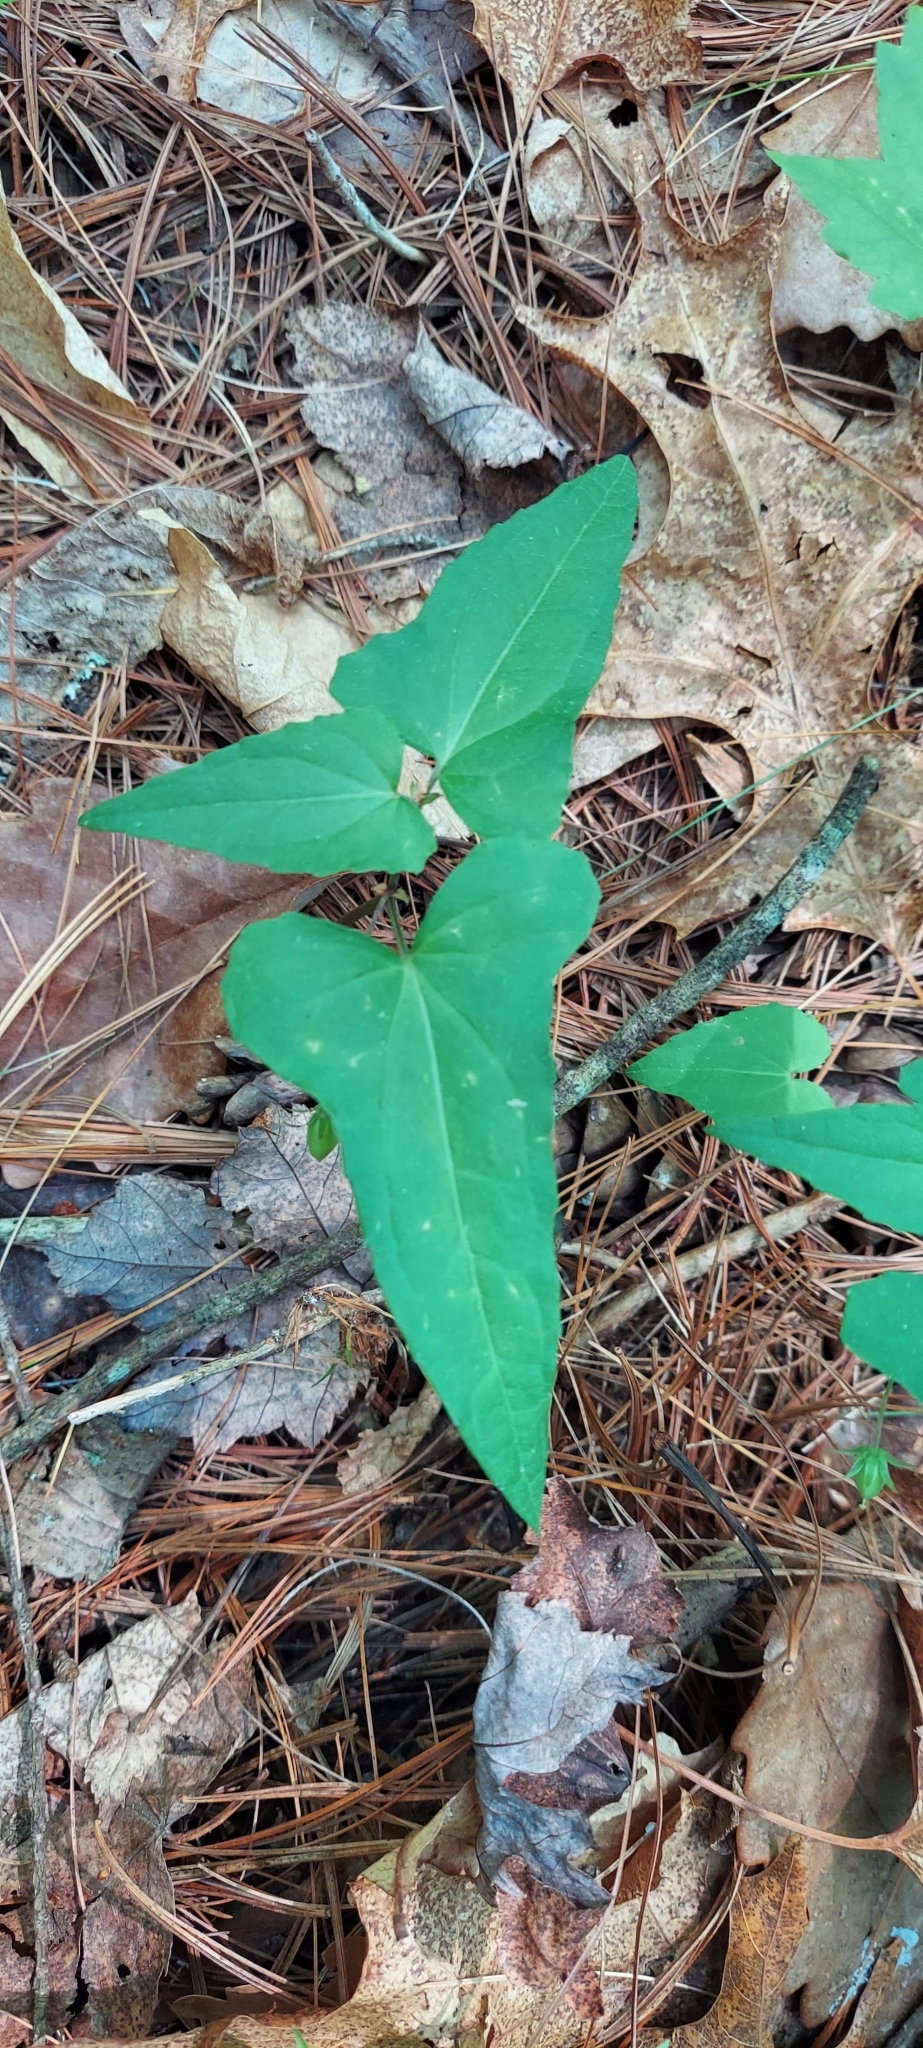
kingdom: Plantae
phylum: Tracheophyta
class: Magnoliopsida
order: Malpighiales
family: Violaceae
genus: Viola
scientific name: Viola hastata
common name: Spear-leaf violet
